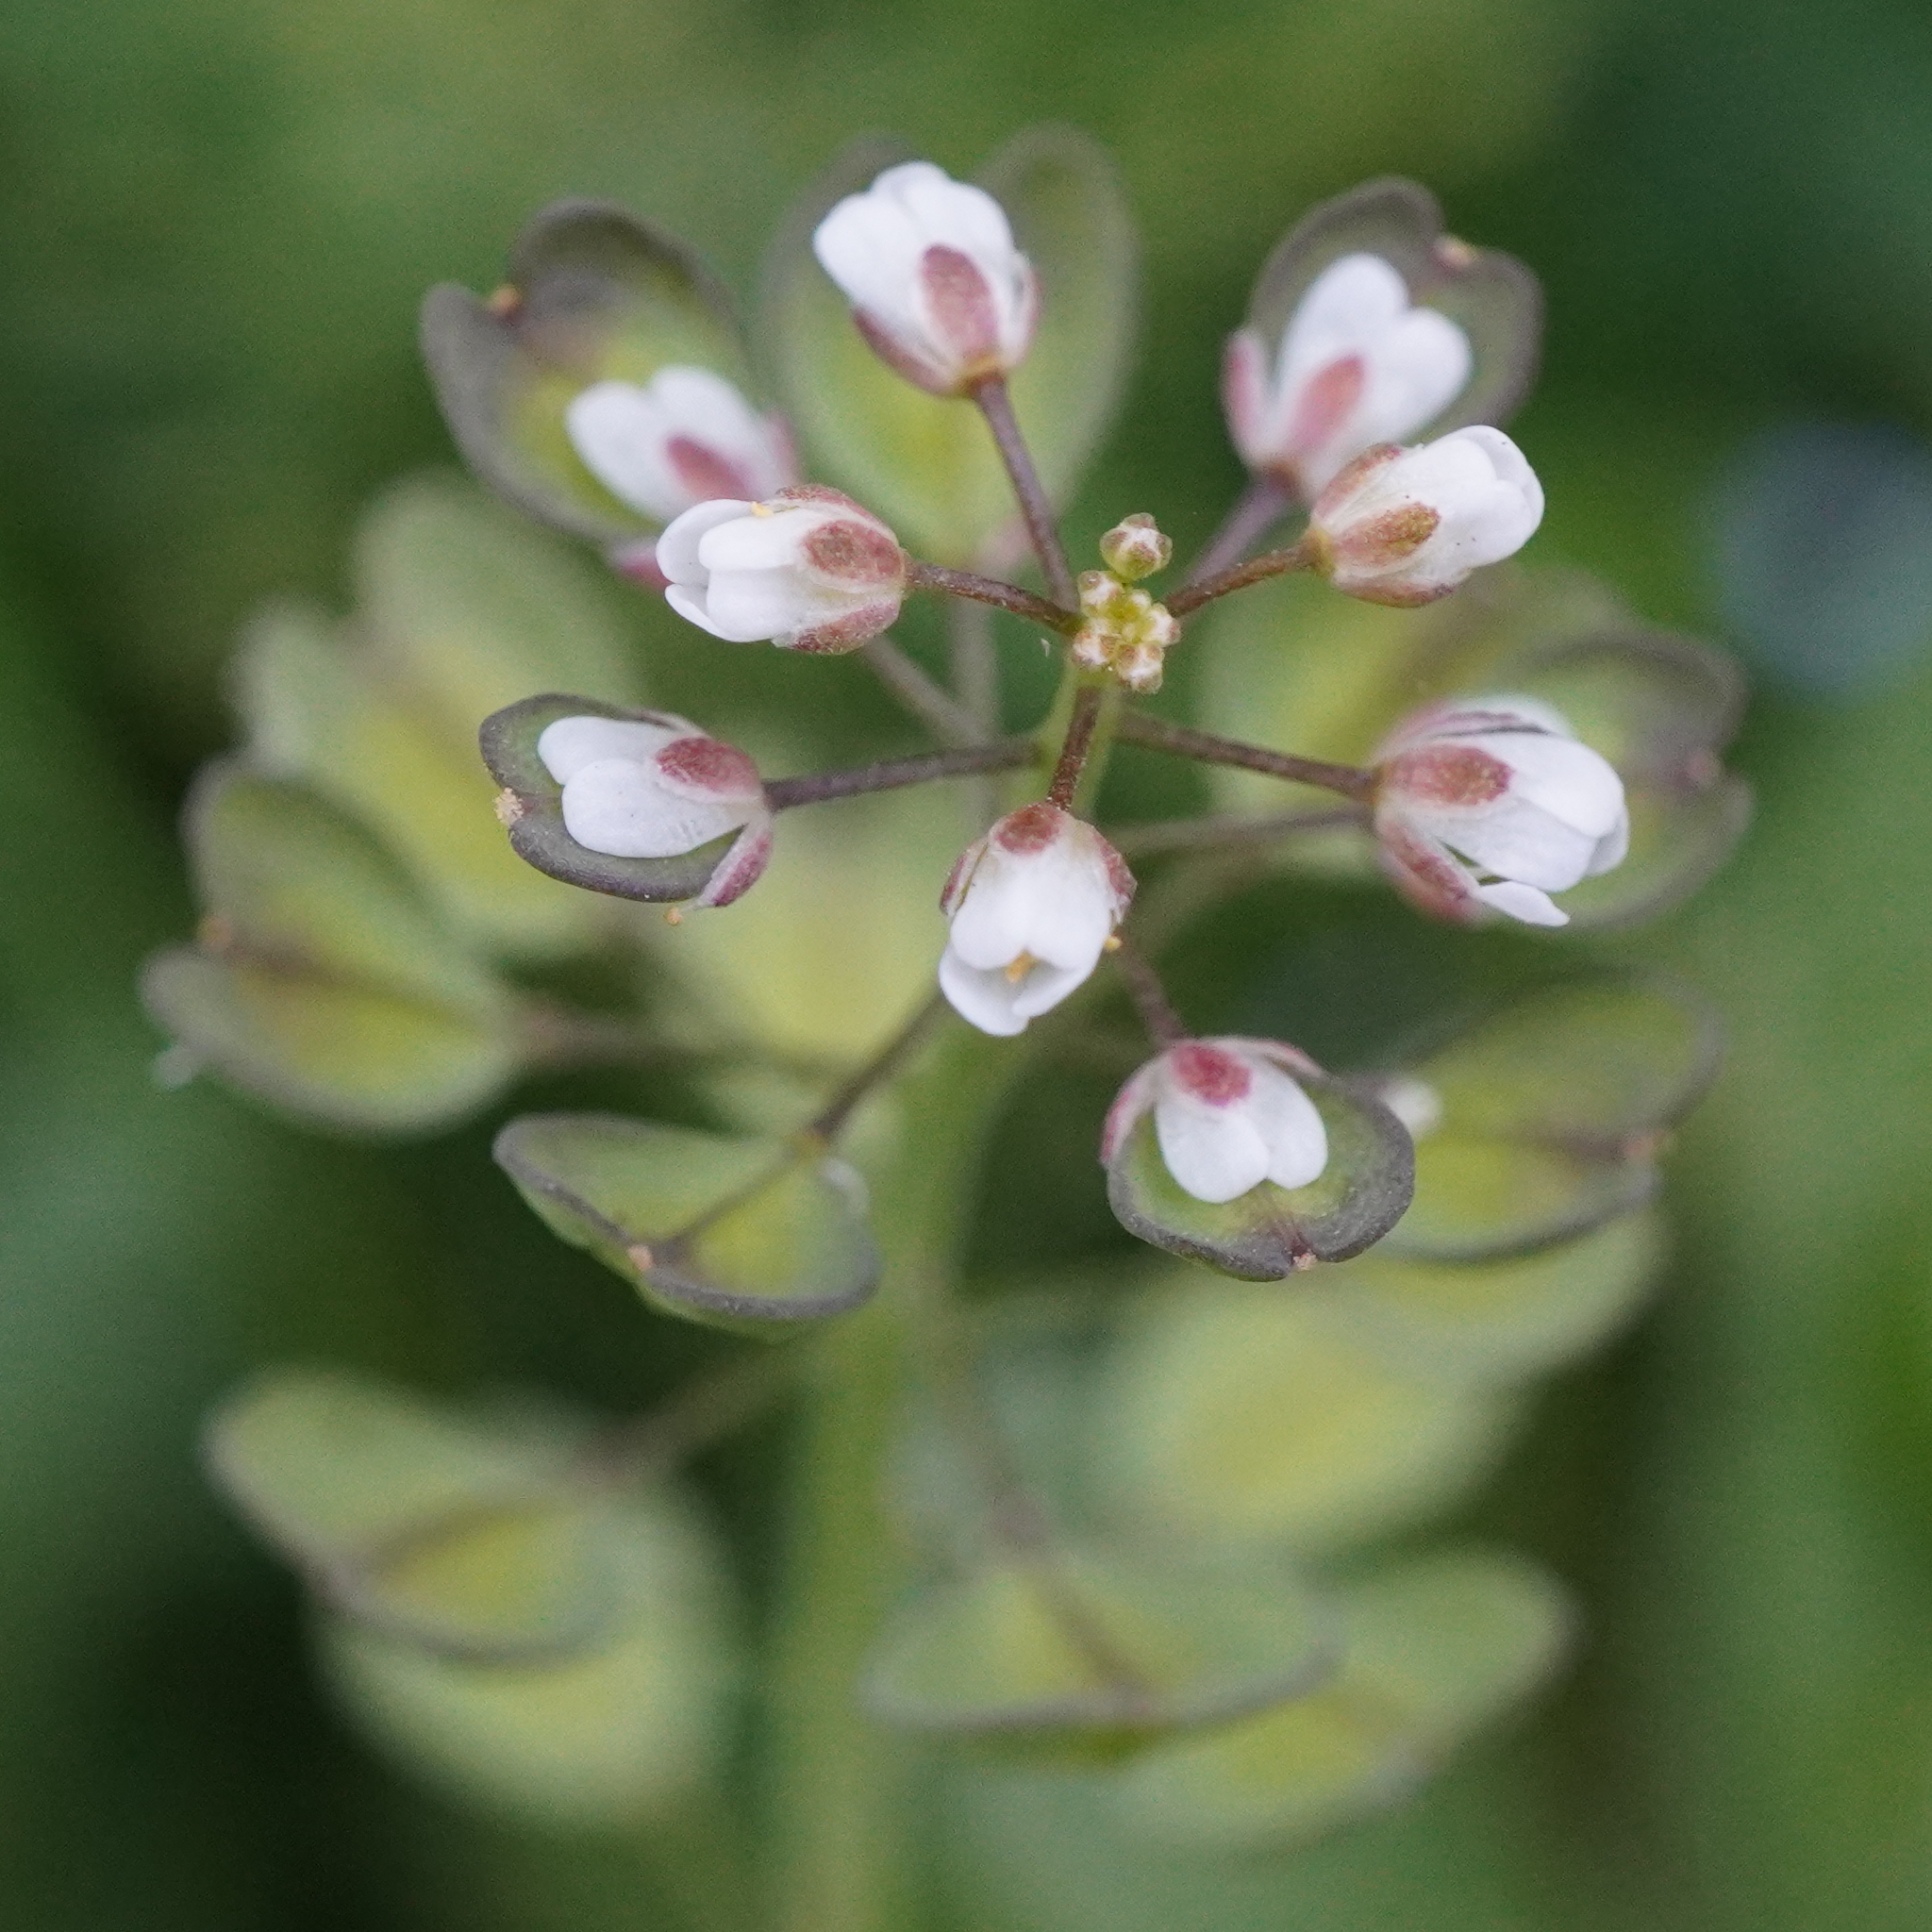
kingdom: Plantae
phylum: Tracheophyta
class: Magnoliopsida
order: Brassicales
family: Brassicaceae
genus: Noccaea
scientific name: Noccaea perfoliata
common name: Perfoliate pennycress
